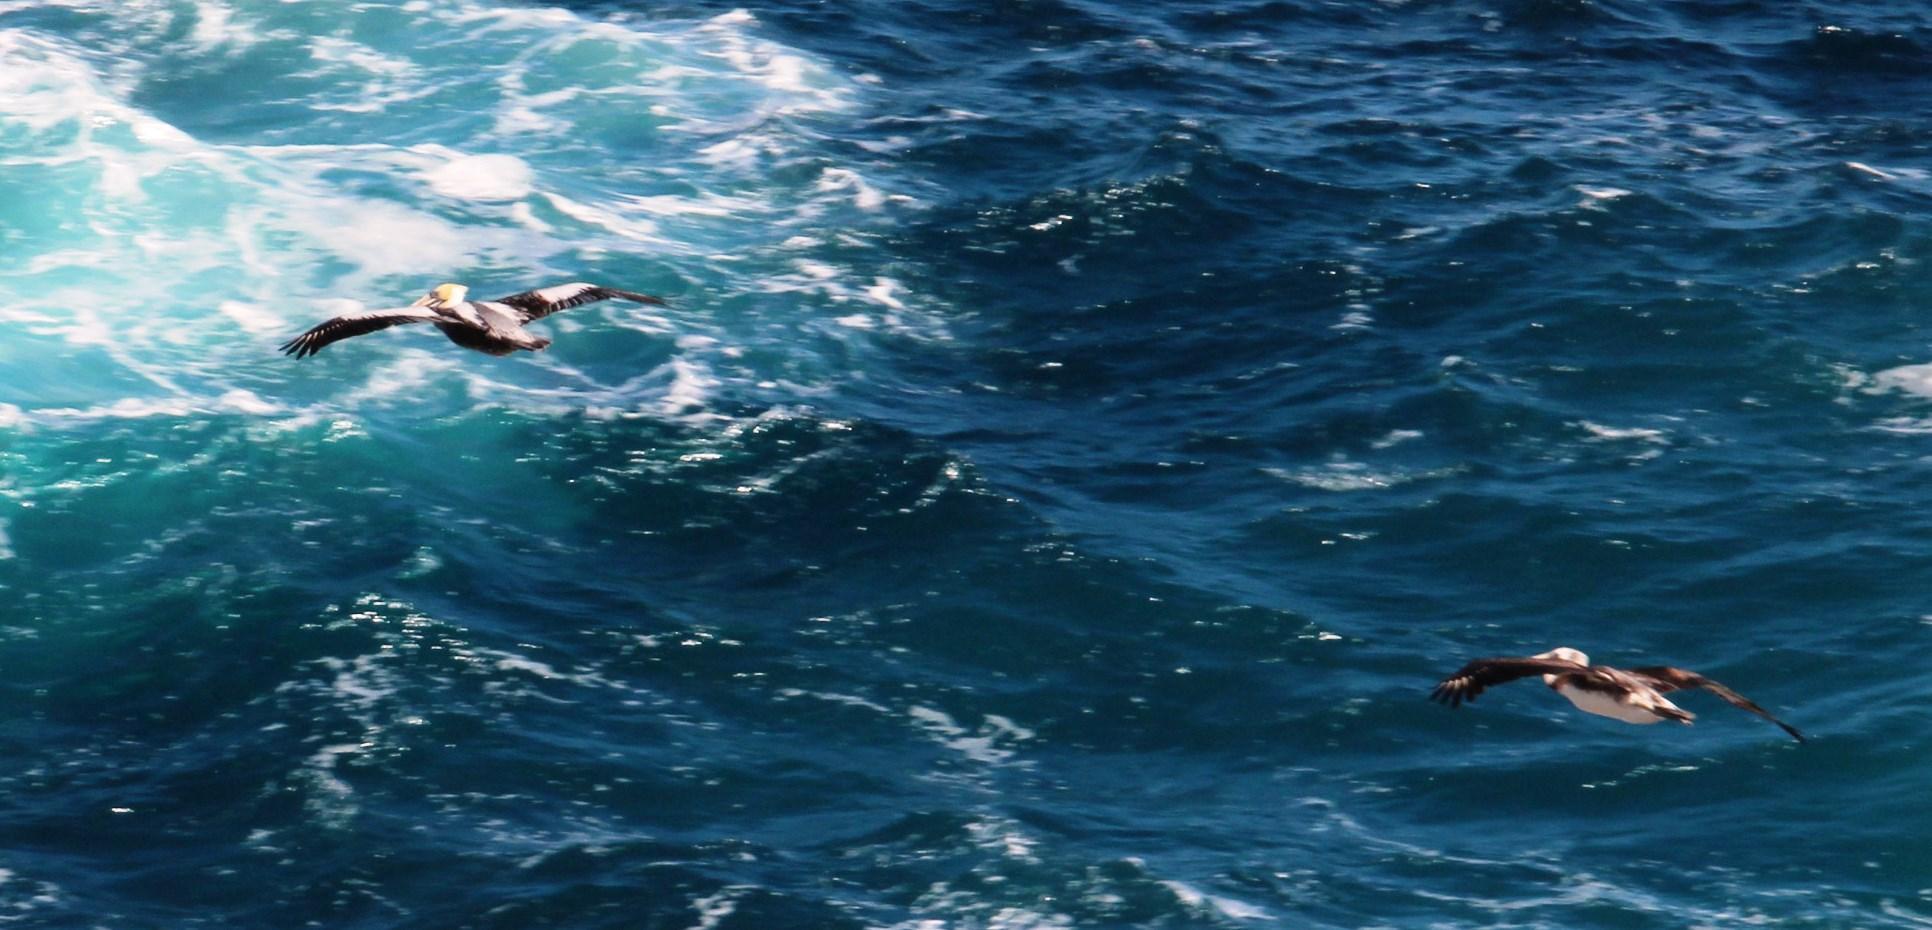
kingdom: Animalia
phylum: Chordata
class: Aves
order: Pelecaniformes
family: Pelecanidae
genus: Pelecanus
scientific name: Pelecanus thagus
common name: Peruvian pelican
